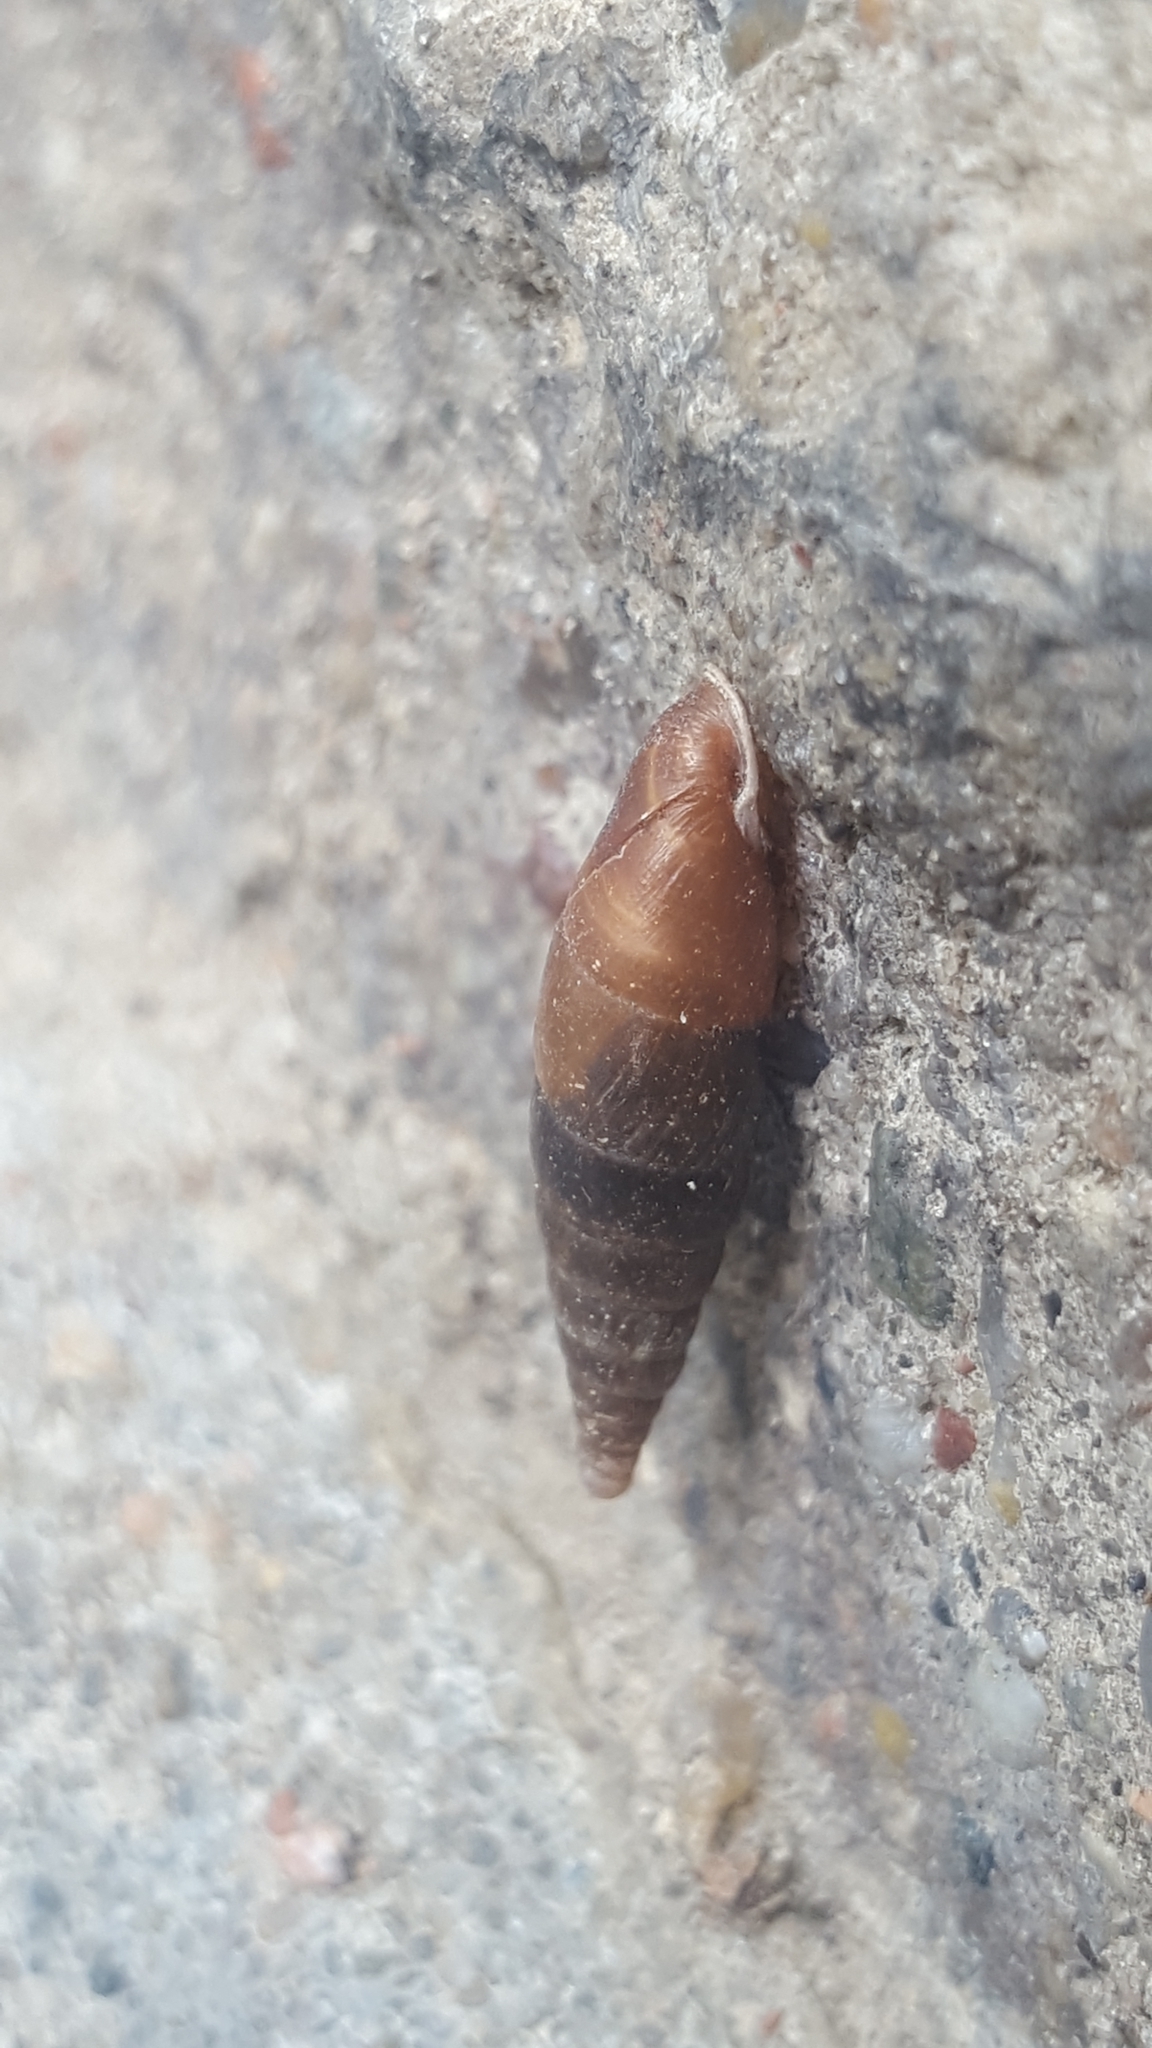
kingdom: Animalia
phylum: Mollusca
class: Gastropoda
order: Stylommatophora
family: Clausiliidae
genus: Cochlodina
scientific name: Cochlodina laminata
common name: Plaited door snail
